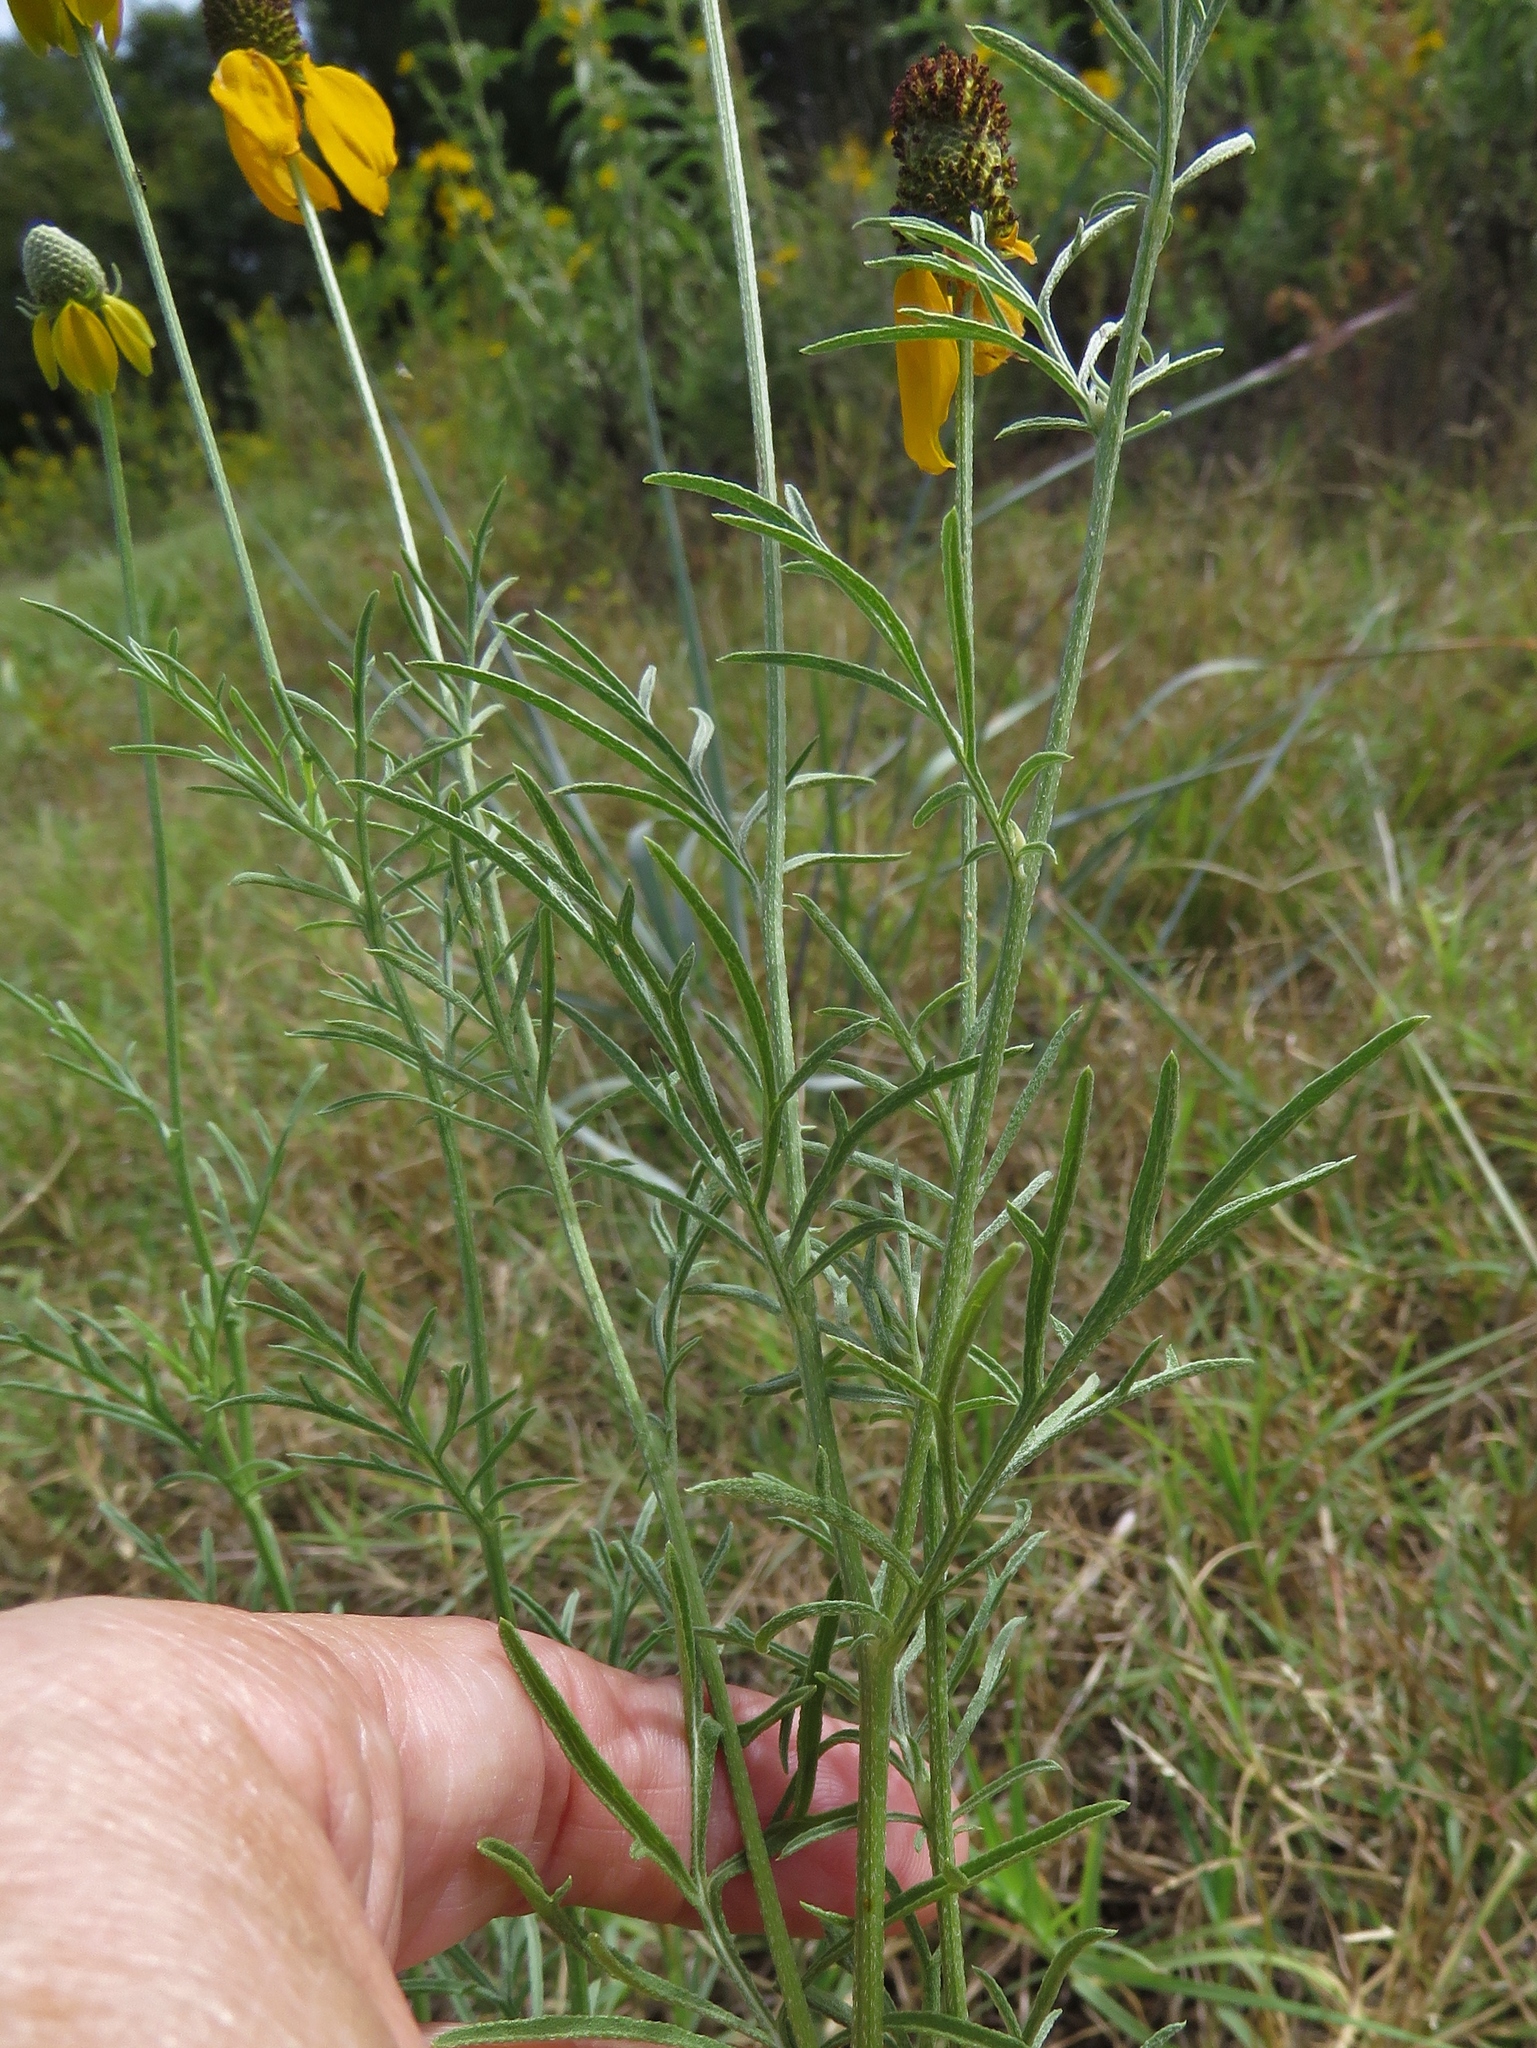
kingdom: Plantae
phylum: Tracheophyta
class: Magnoliopsida
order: Asterales
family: Asteraceae
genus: Ratibida
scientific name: Ratibida columnifera
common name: Prairie coneflower
